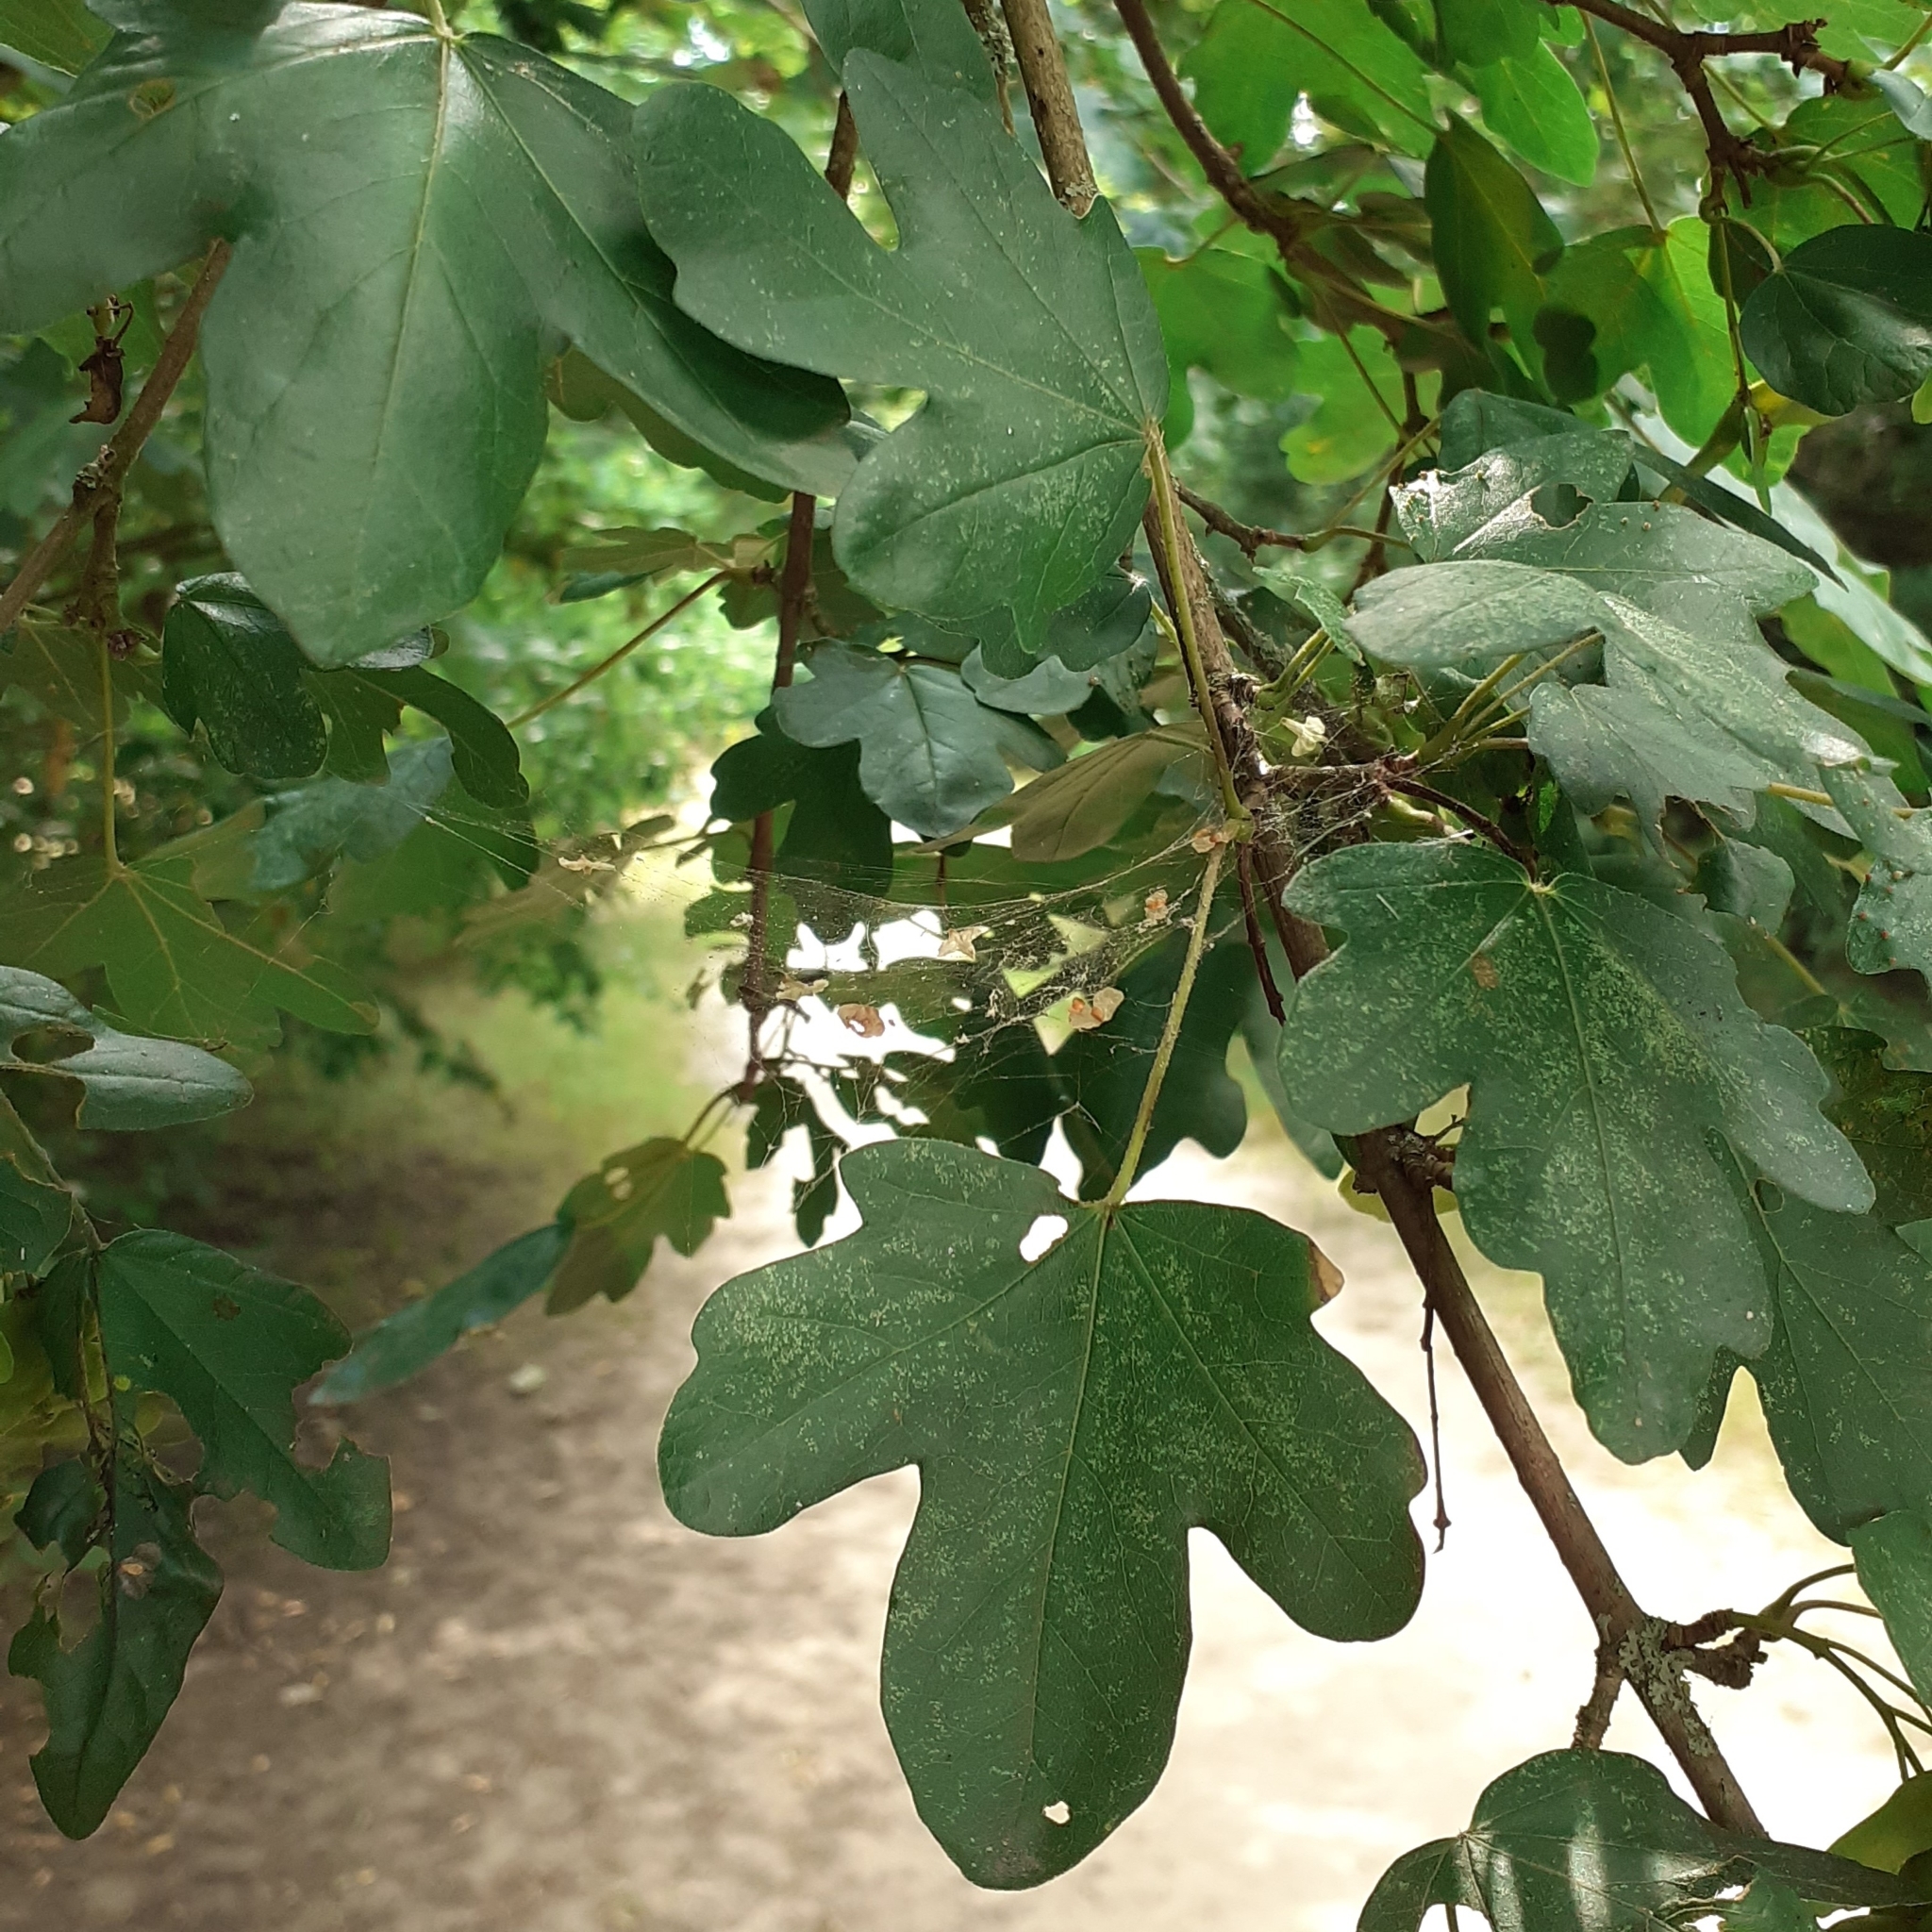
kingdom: Plantae
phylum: Tracheophyta
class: Magnoliopsida
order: Sapindales
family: Sapindaceae
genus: Acer
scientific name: Acer campestre
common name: Field maple
